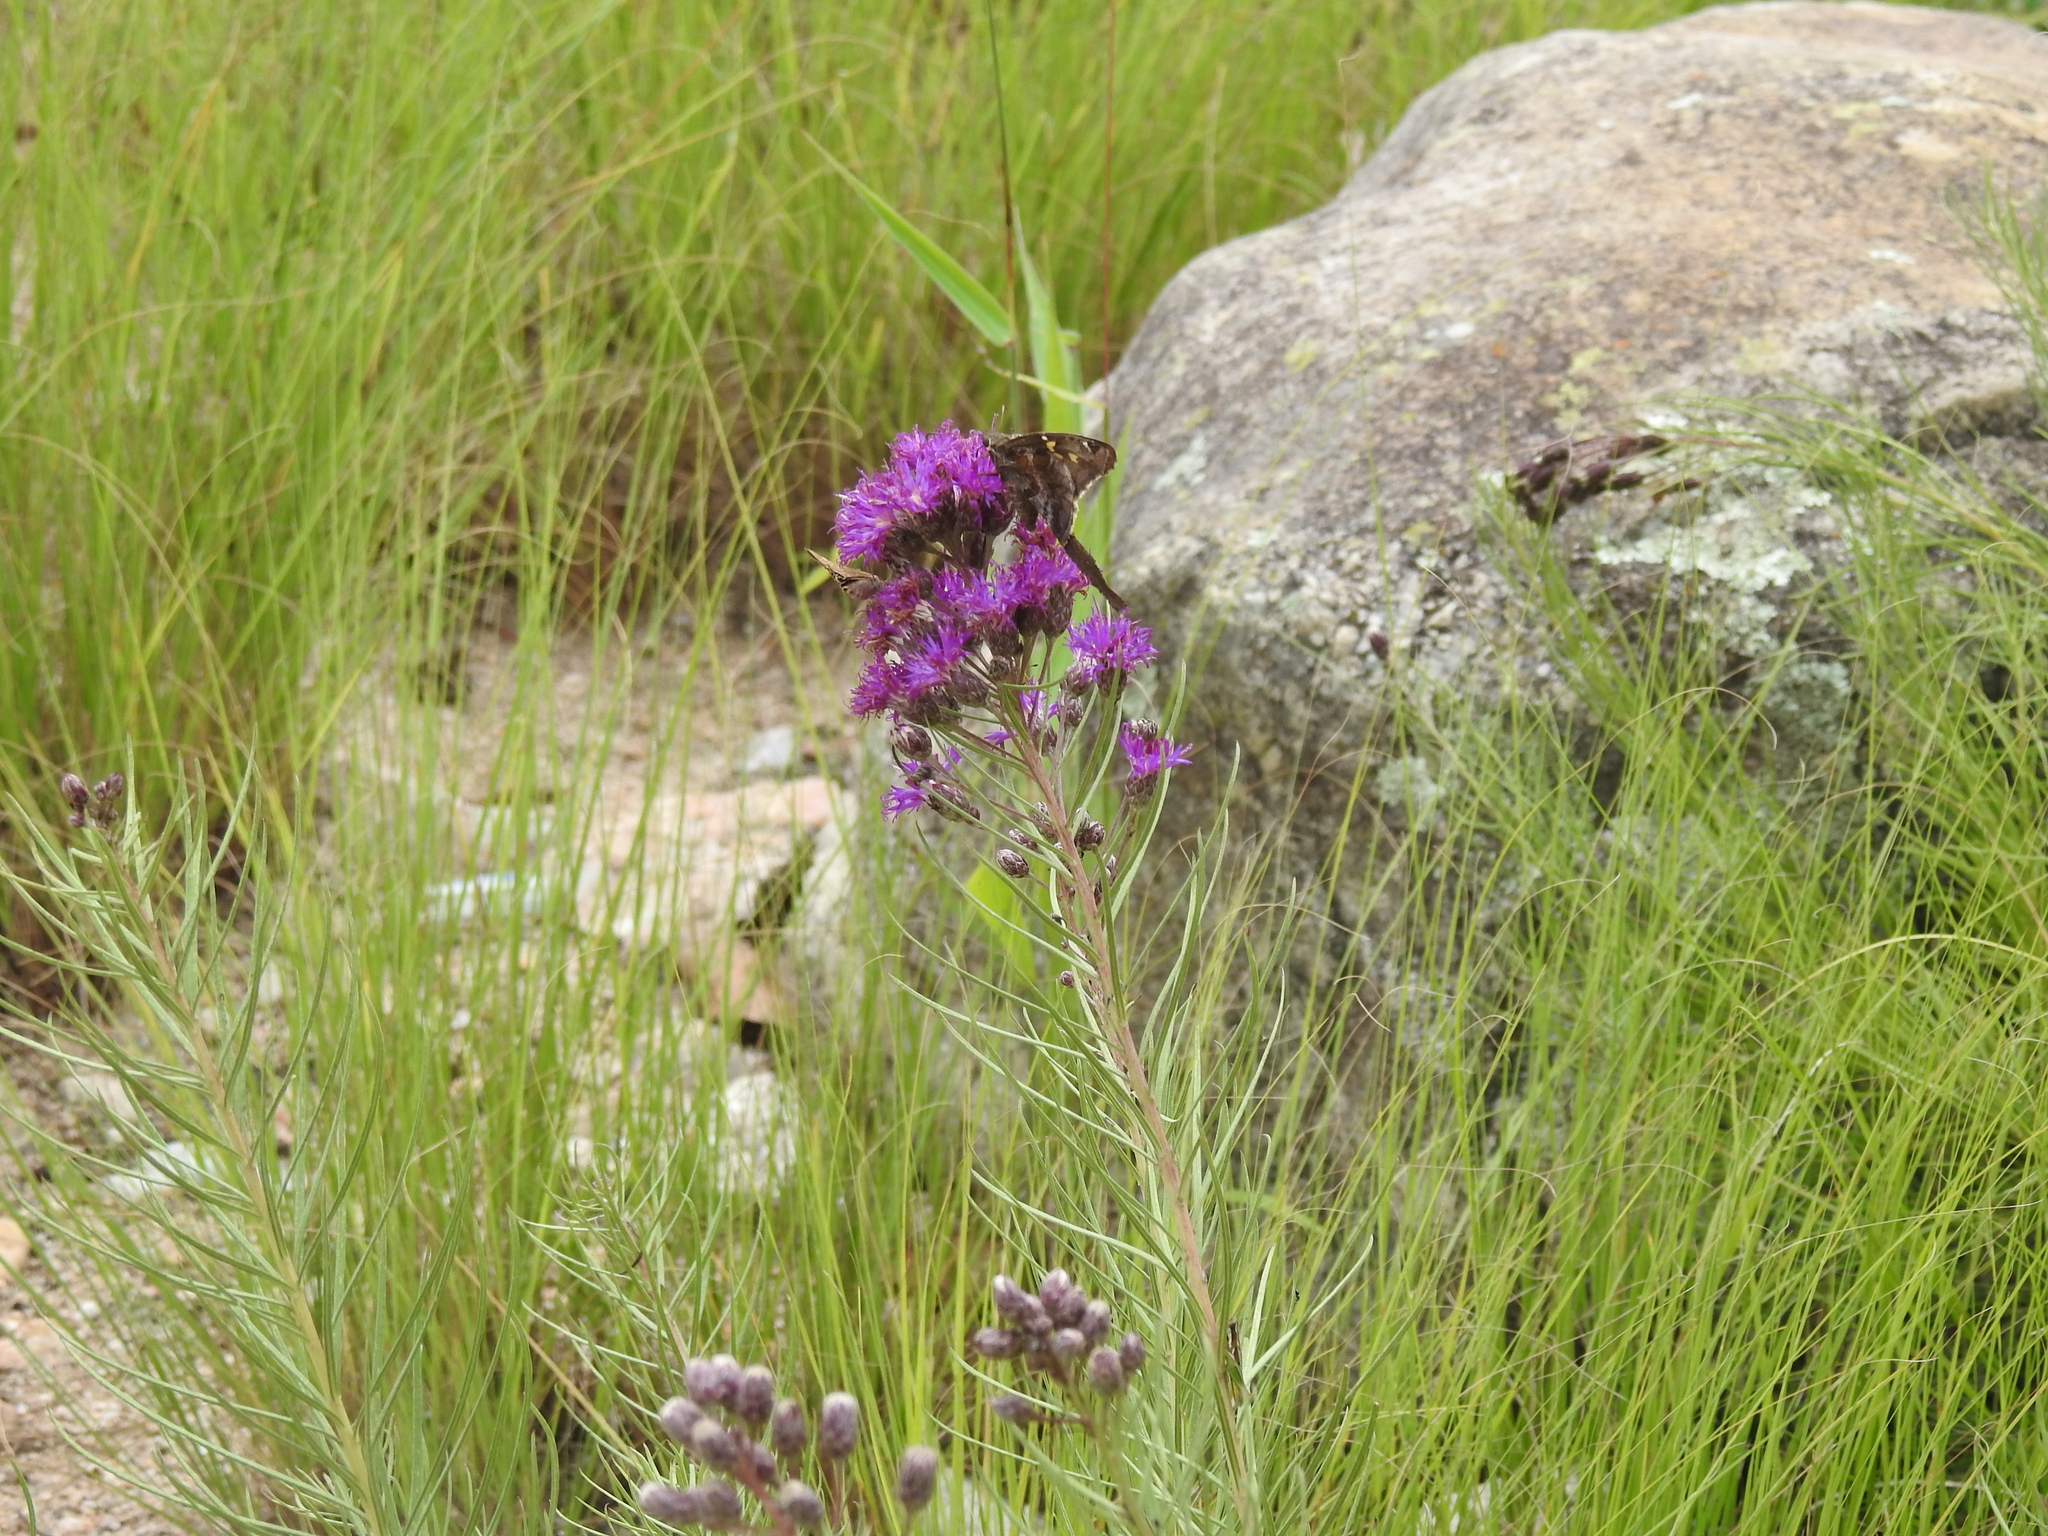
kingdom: Plantae
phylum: Tracheophyta
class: Magnoliopsida
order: Asterales
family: Asteraceae
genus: Vernonanthura
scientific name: Vernonanthura nudiflora
